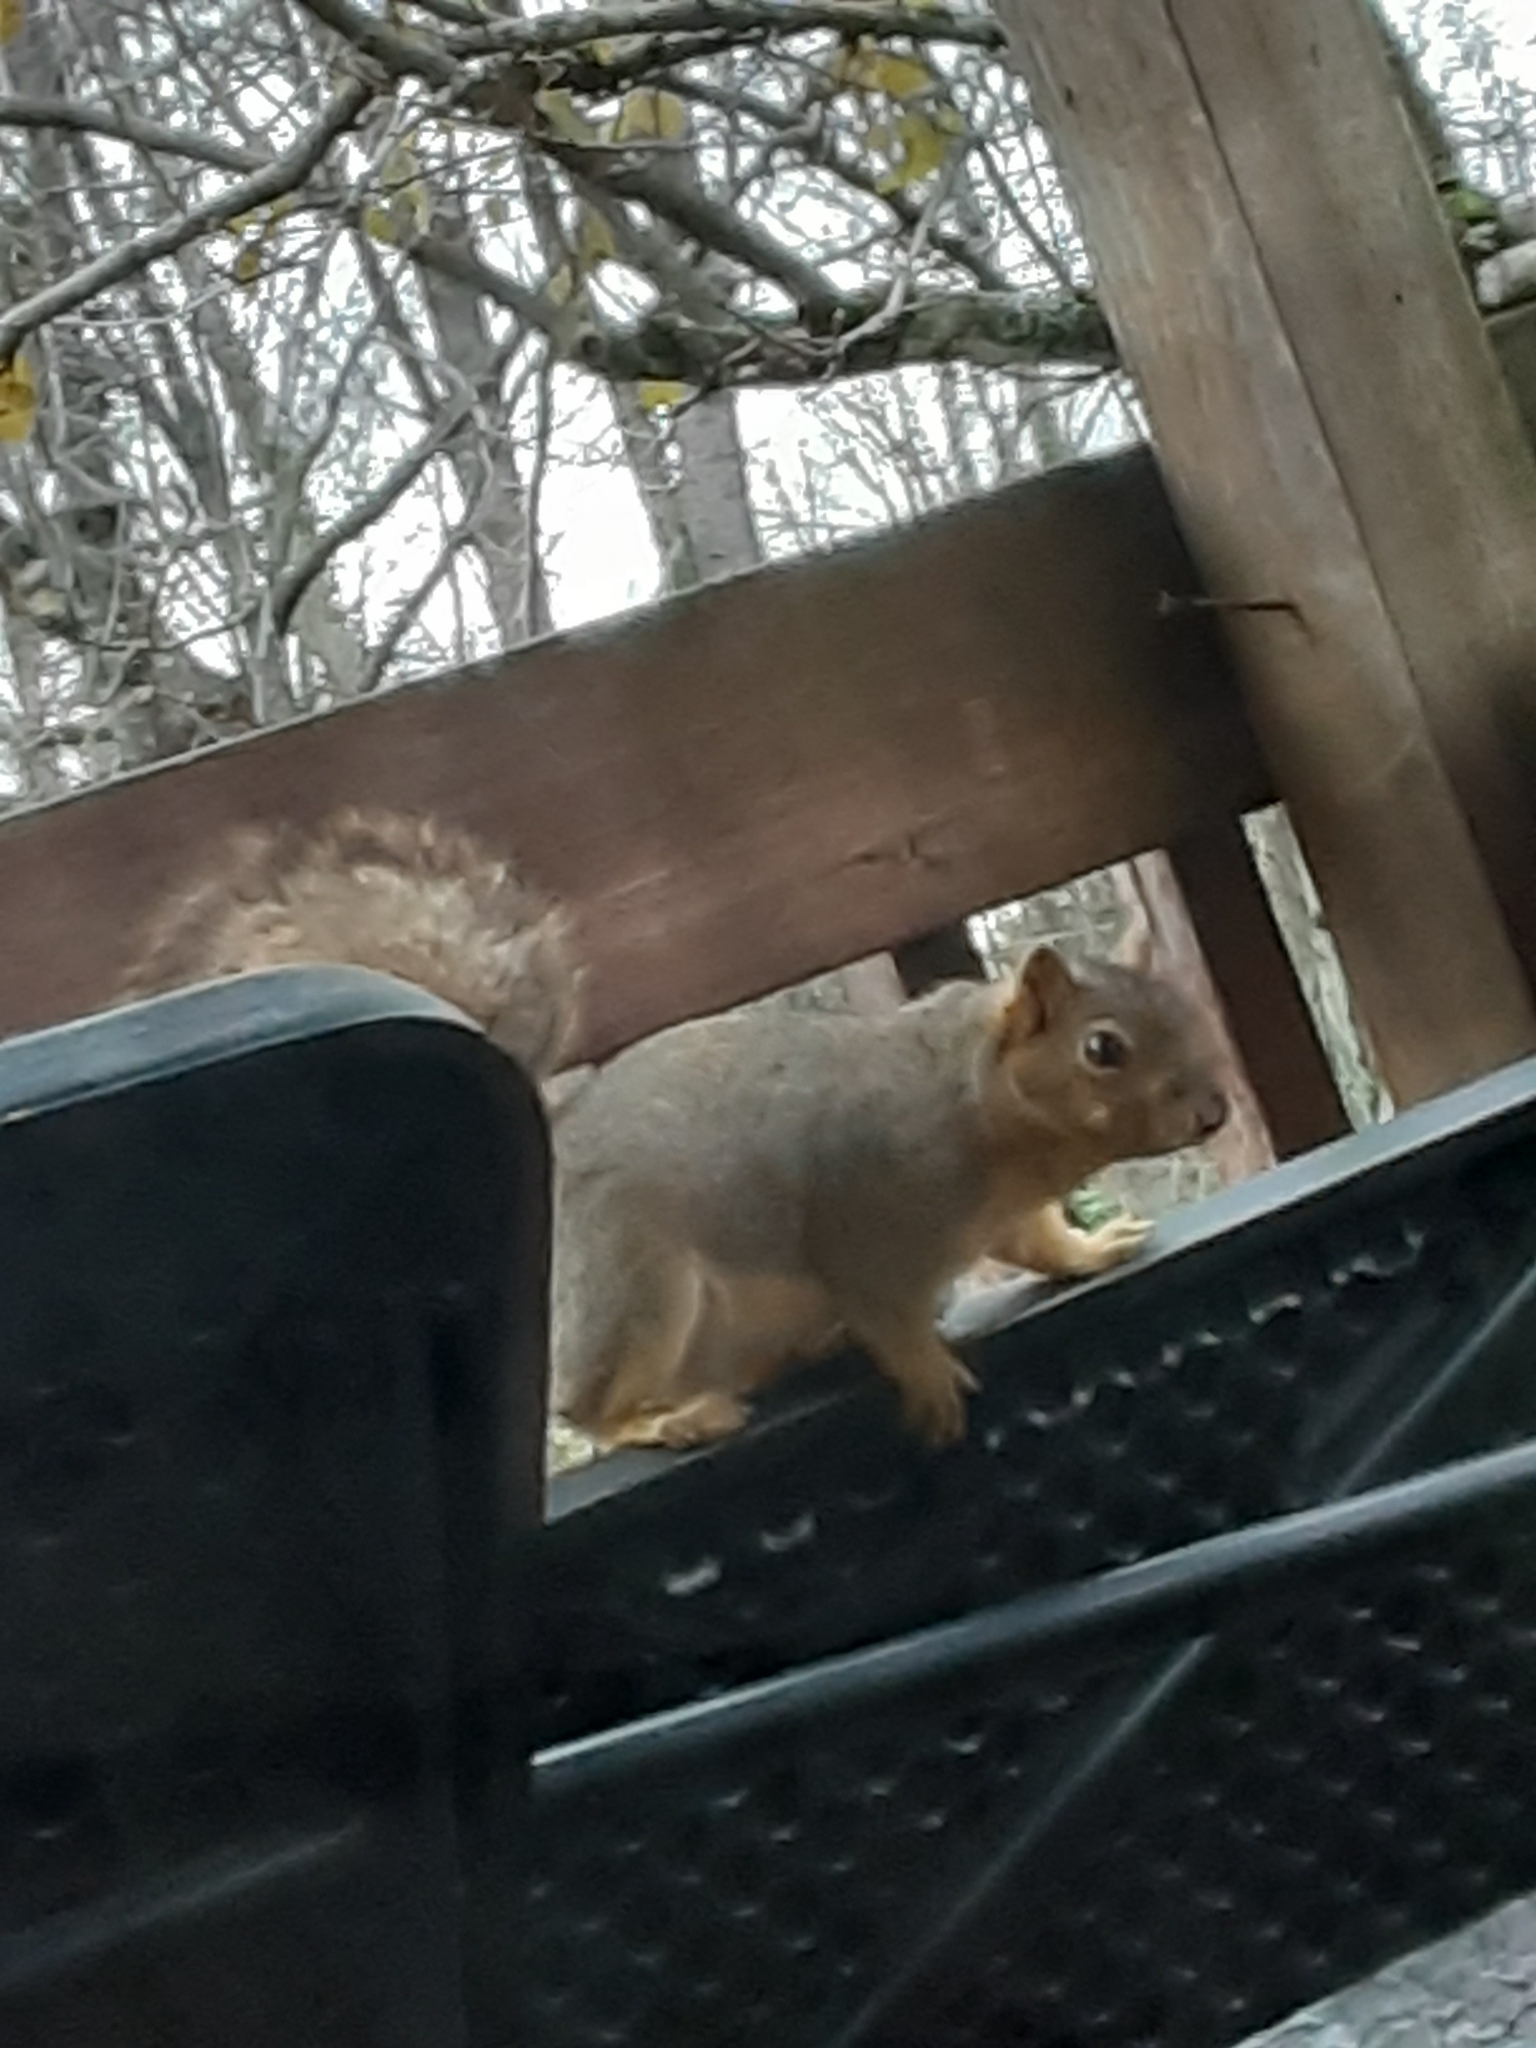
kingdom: Animalia
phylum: Chordata
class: Mammalia
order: Rodentia
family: Sciuridae
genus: Sciurus
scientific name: Sciurus niger
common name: Fox squirrel
